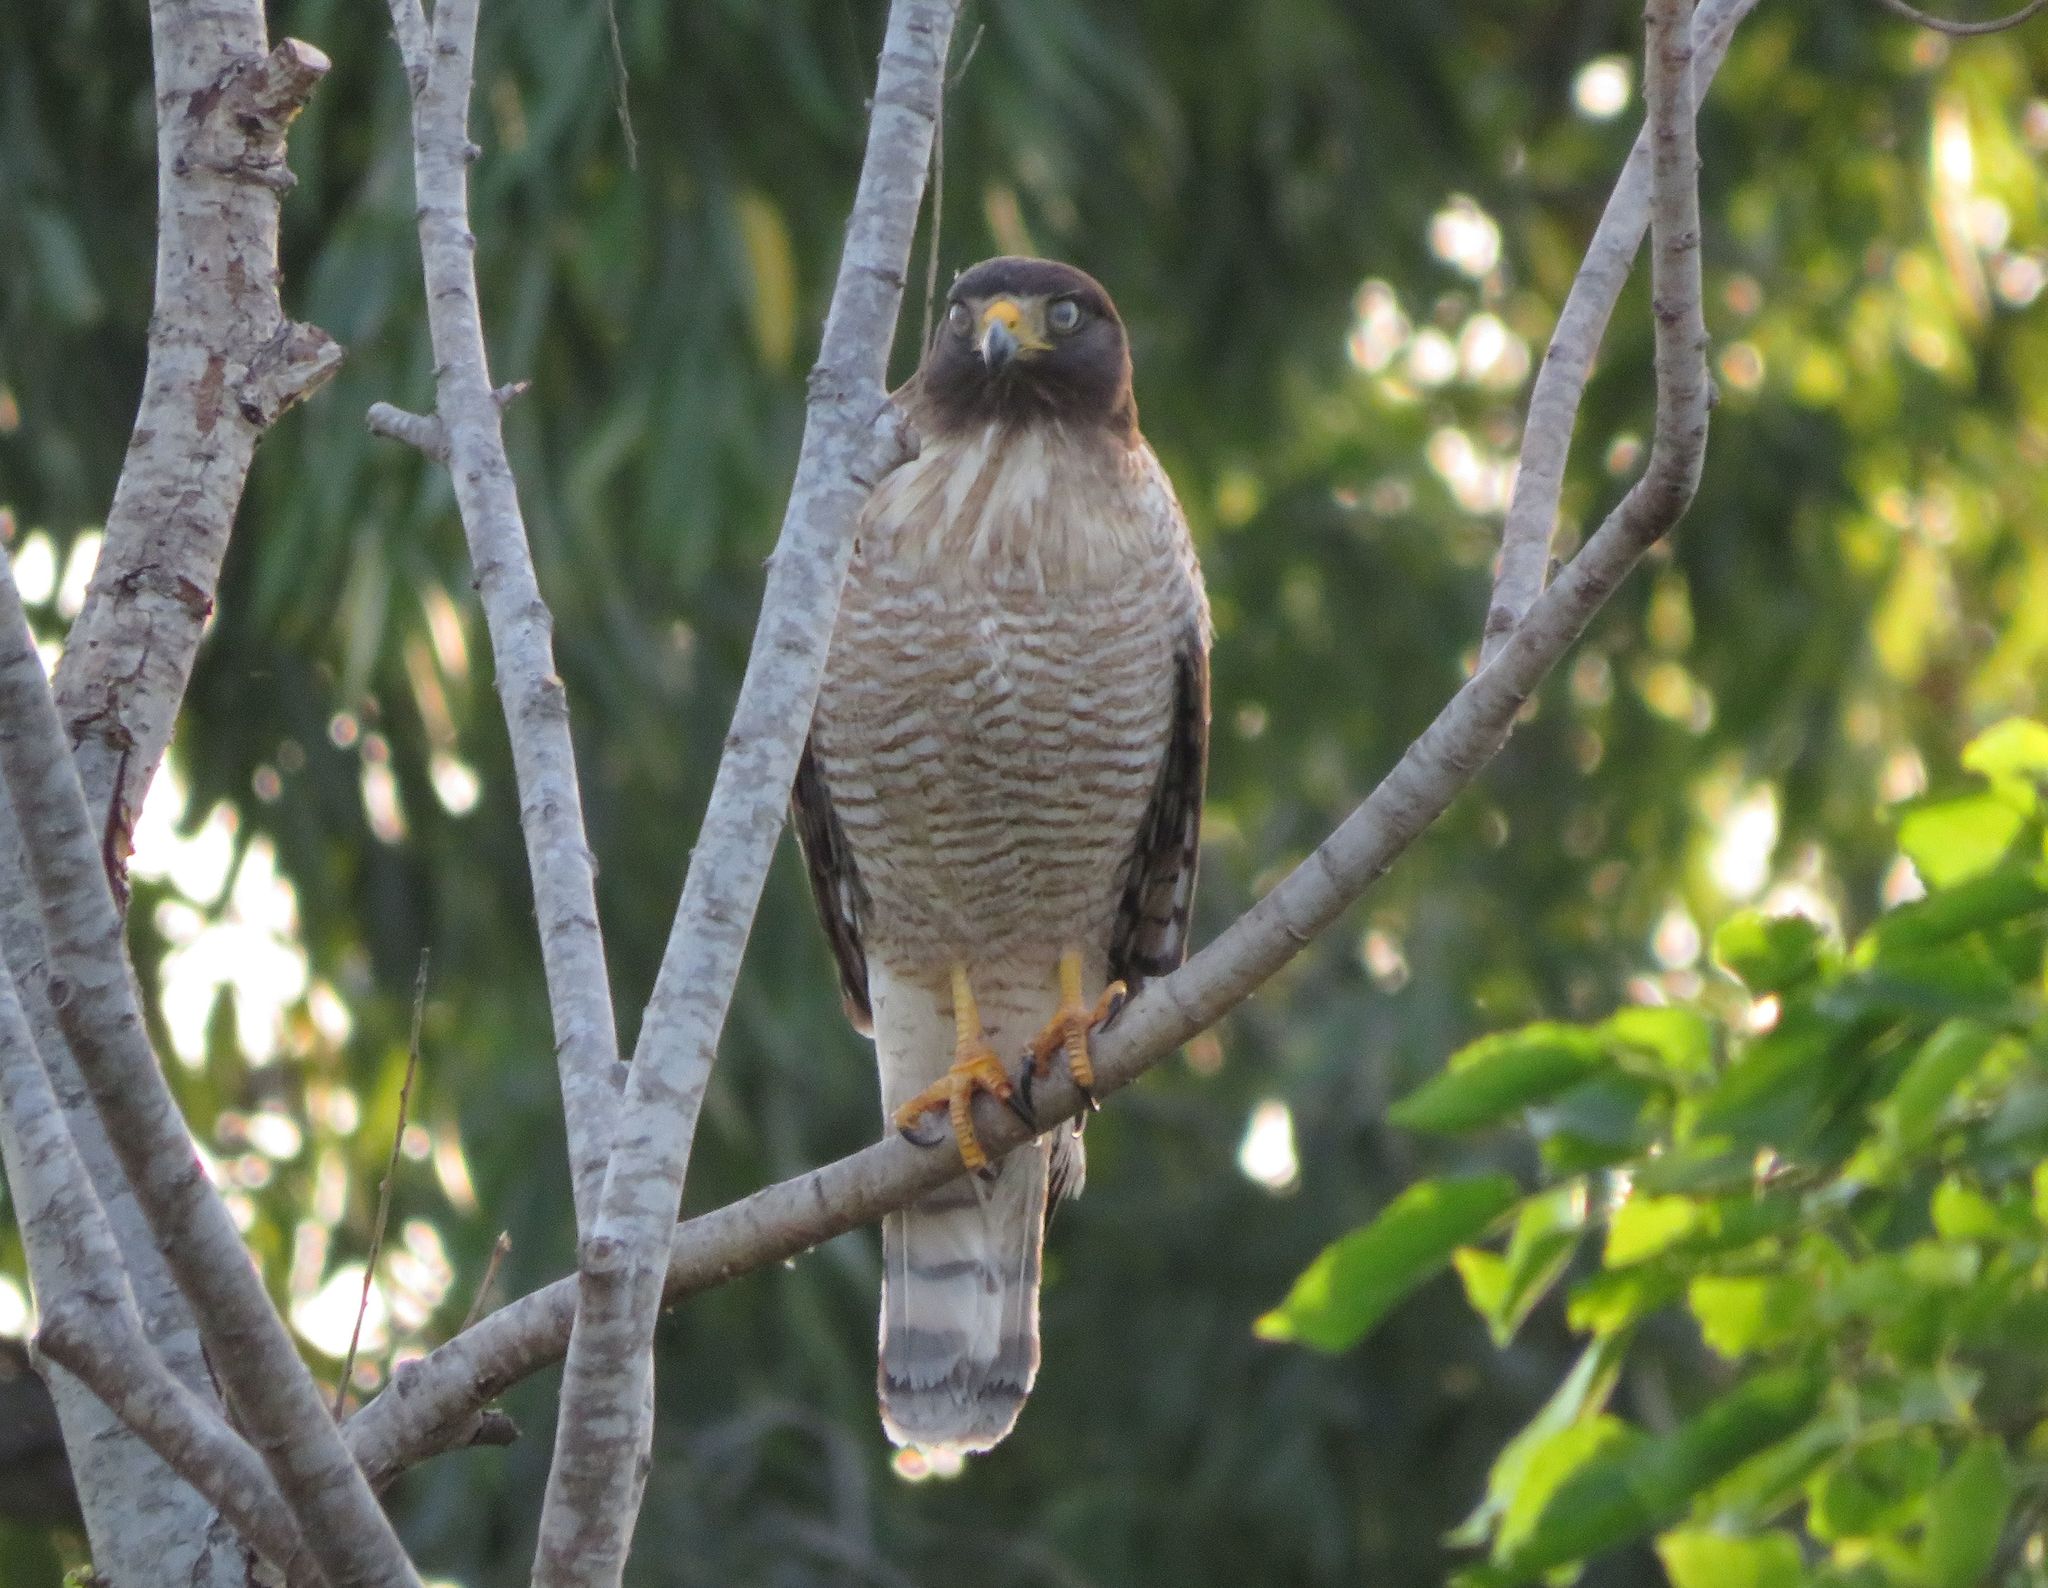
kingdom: Animalia
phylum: Chordata
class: Aves
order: Accipitriformes
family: Accipitridae
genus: Rupornis
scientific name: Rupornis magnirostris
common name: Roadside hawk
